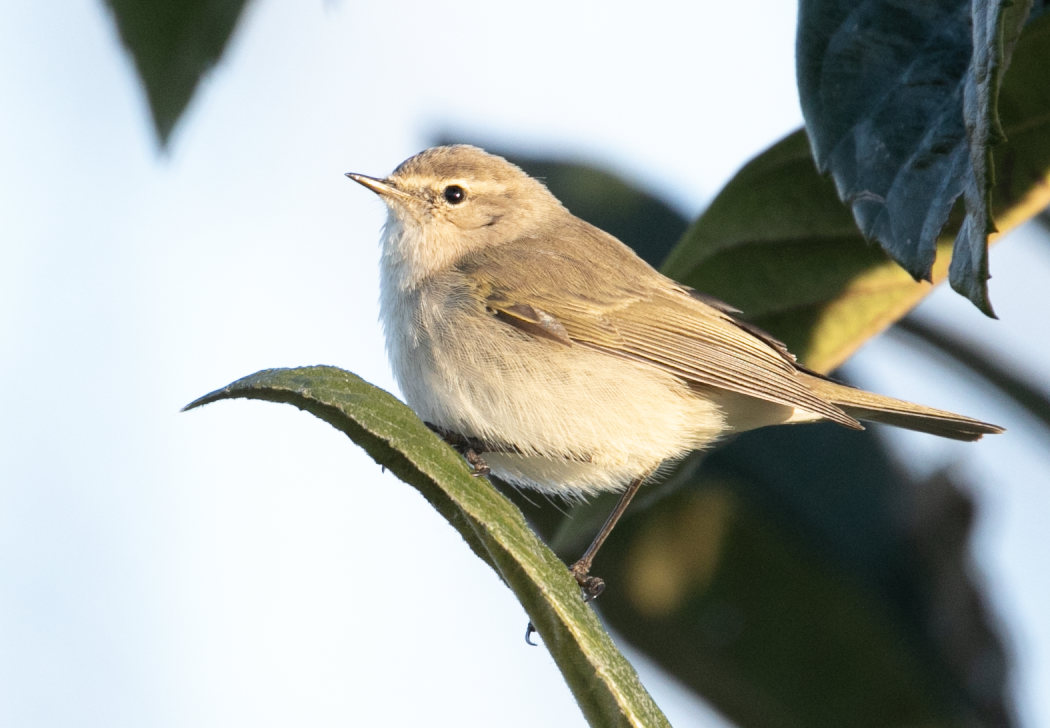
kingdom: Animalia
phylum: Chordata
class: Aves
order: Passeriformes
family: Phylloscopidae
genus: Phylloscopus
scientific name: Phylloscopus collybita
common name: Common chiffchaff
